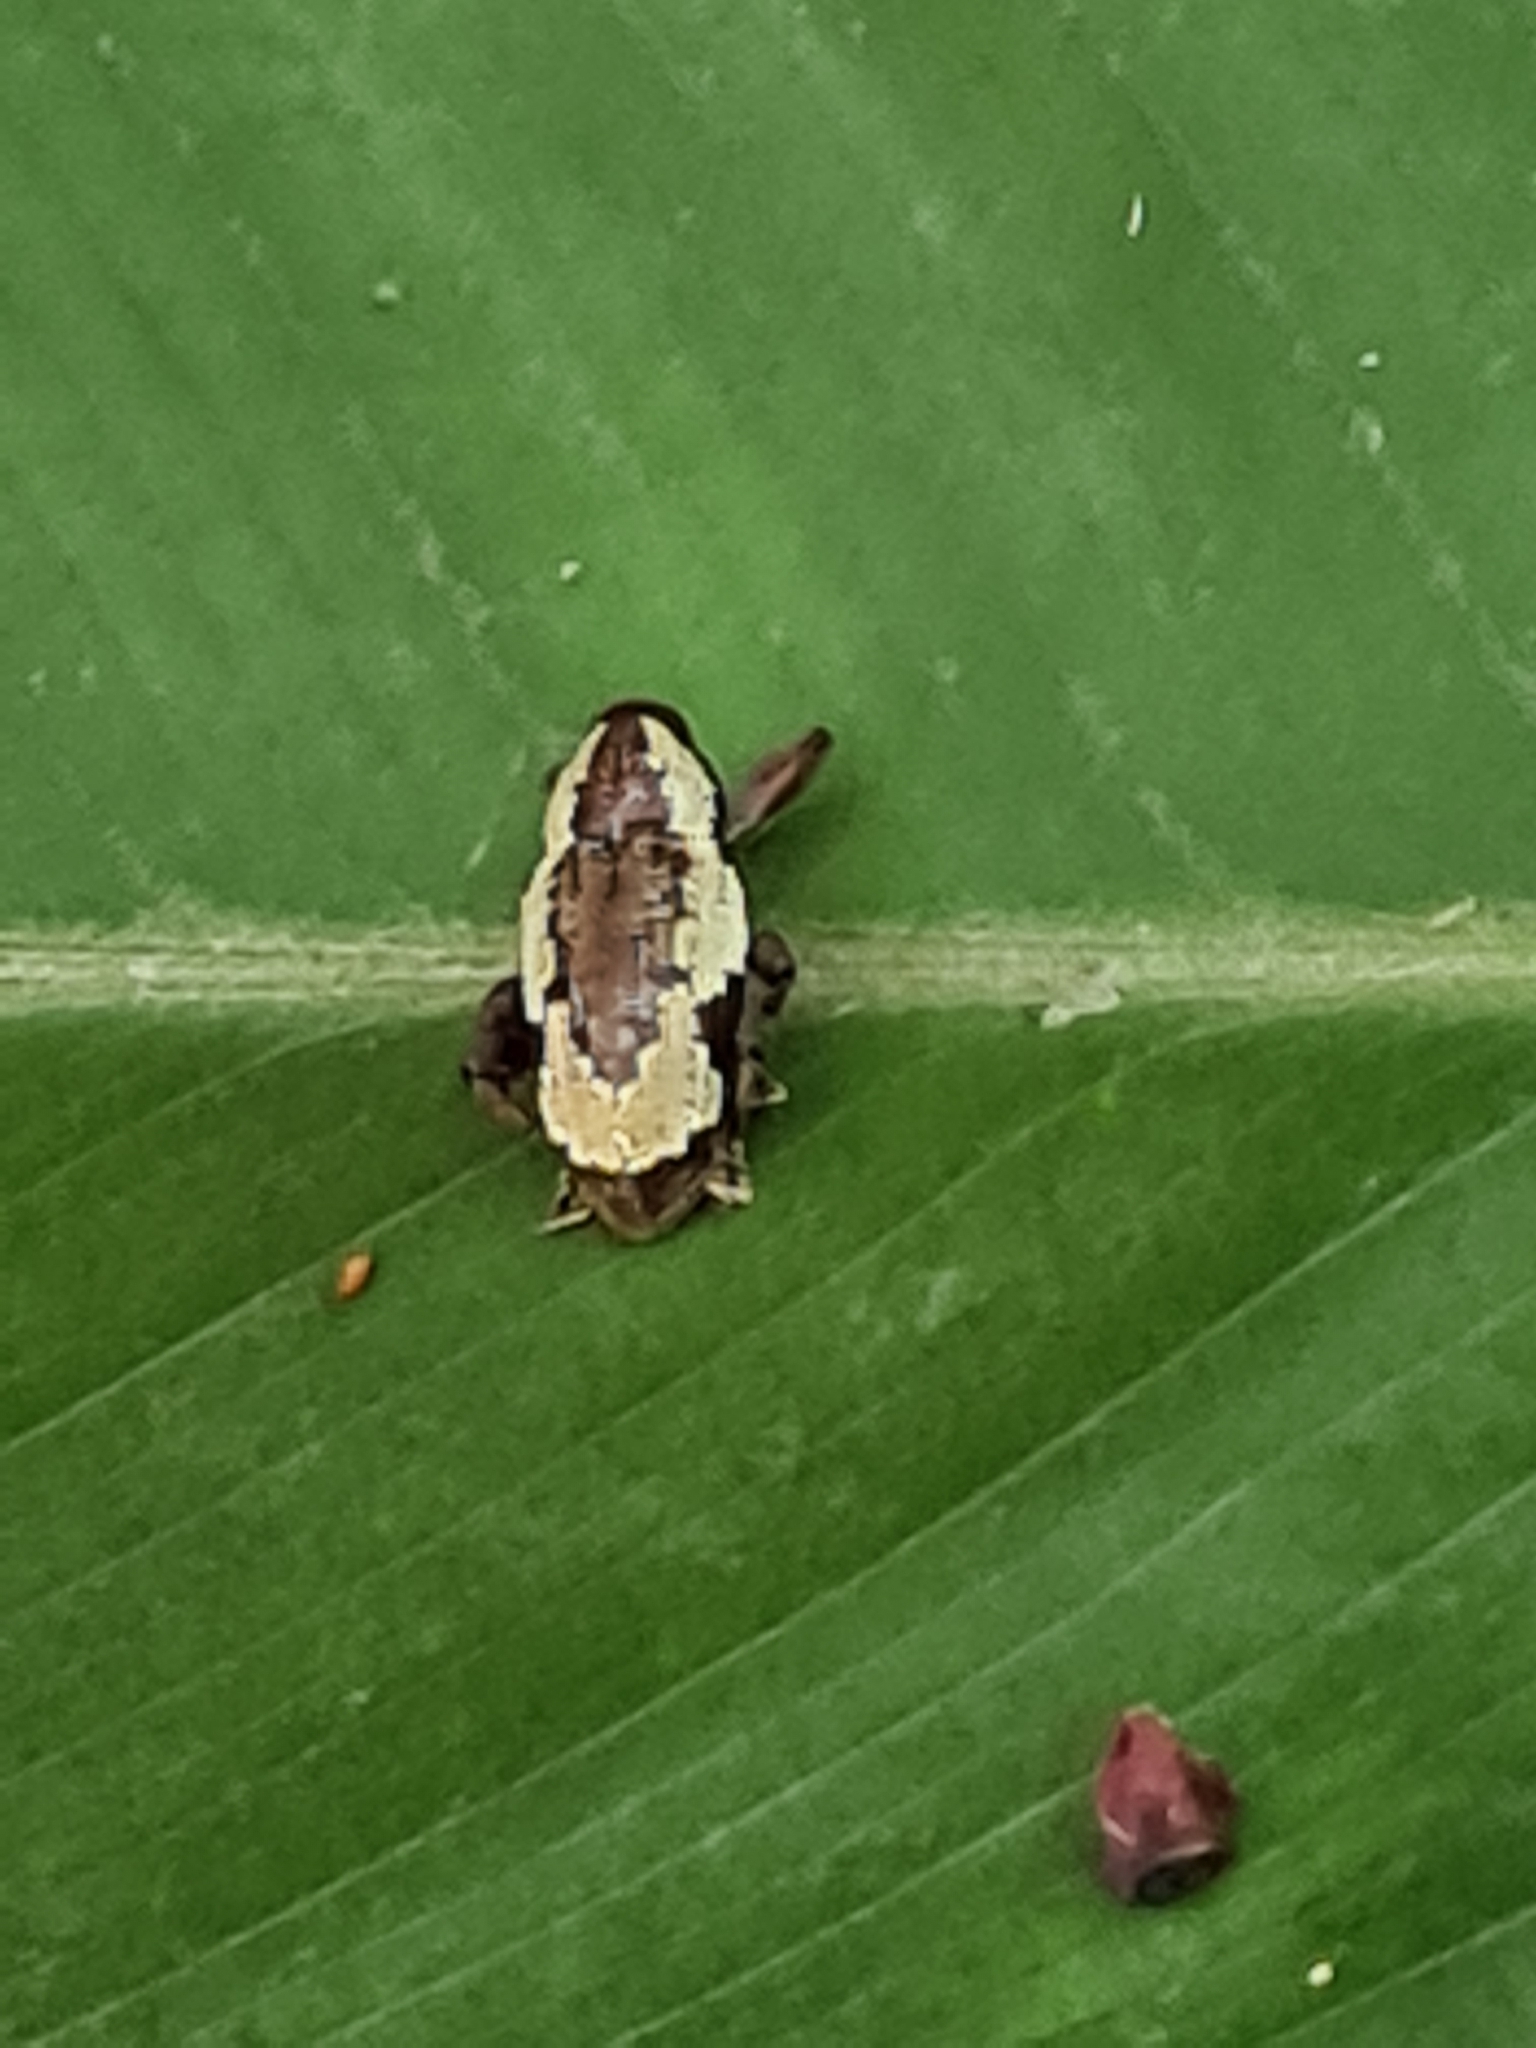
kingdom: Animalia
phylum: Arthropoda
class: Insecta
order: Coleoptera
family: Curculionidae
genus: Heilipodus
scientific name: Heilipodus similis
